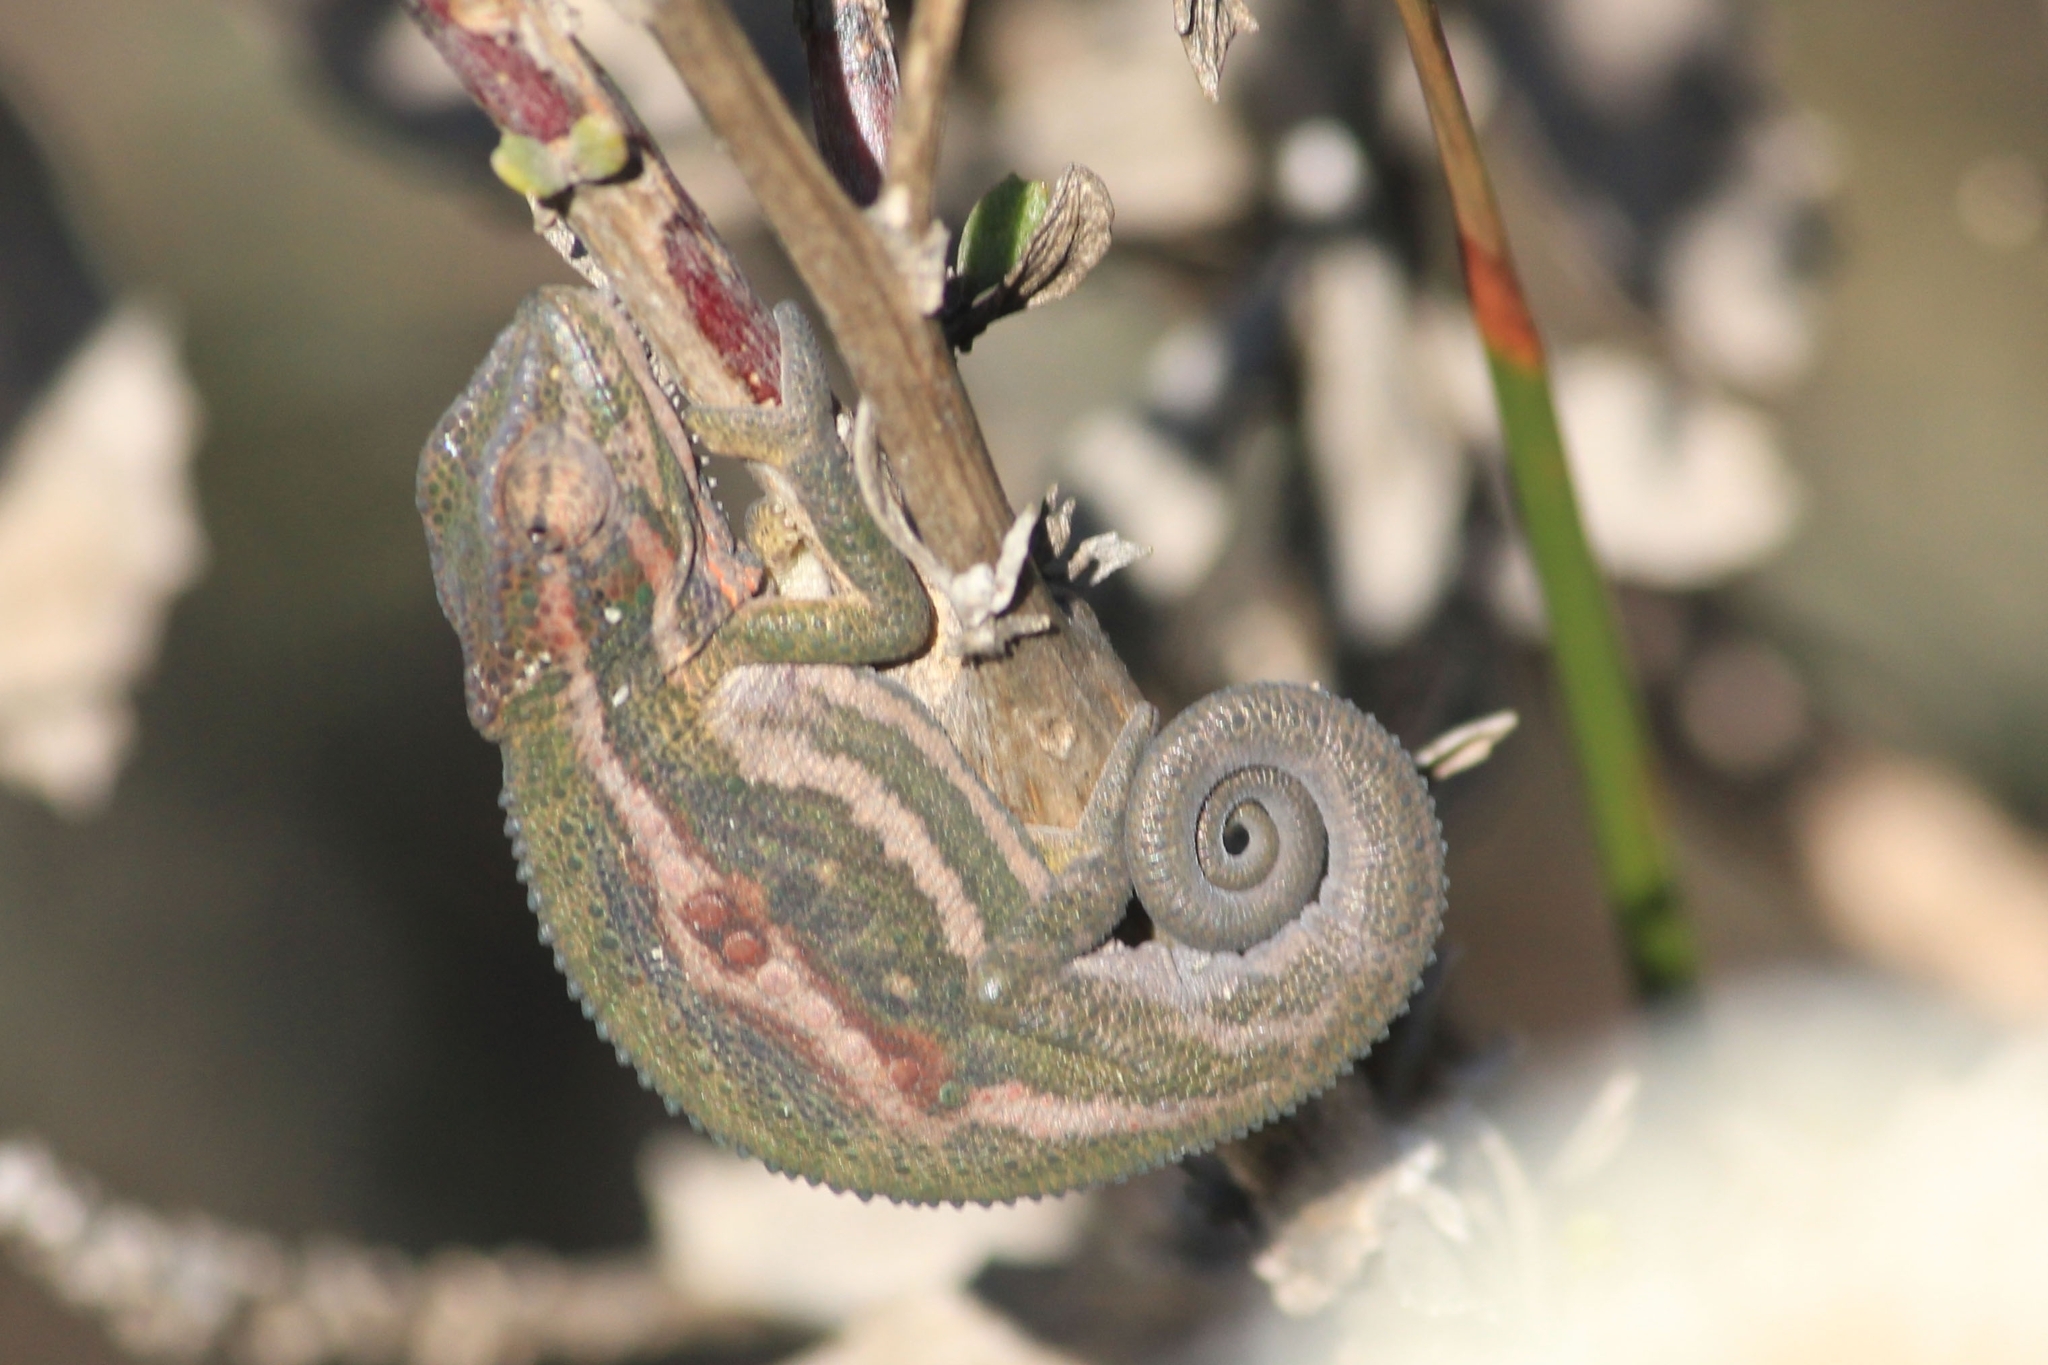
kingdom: Animalia
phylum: Chordata
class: Squamata
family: Chamaeleonidae
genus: Bradypodion
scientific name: Bradypodion pumilum
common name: Cape dwarf chameleon
